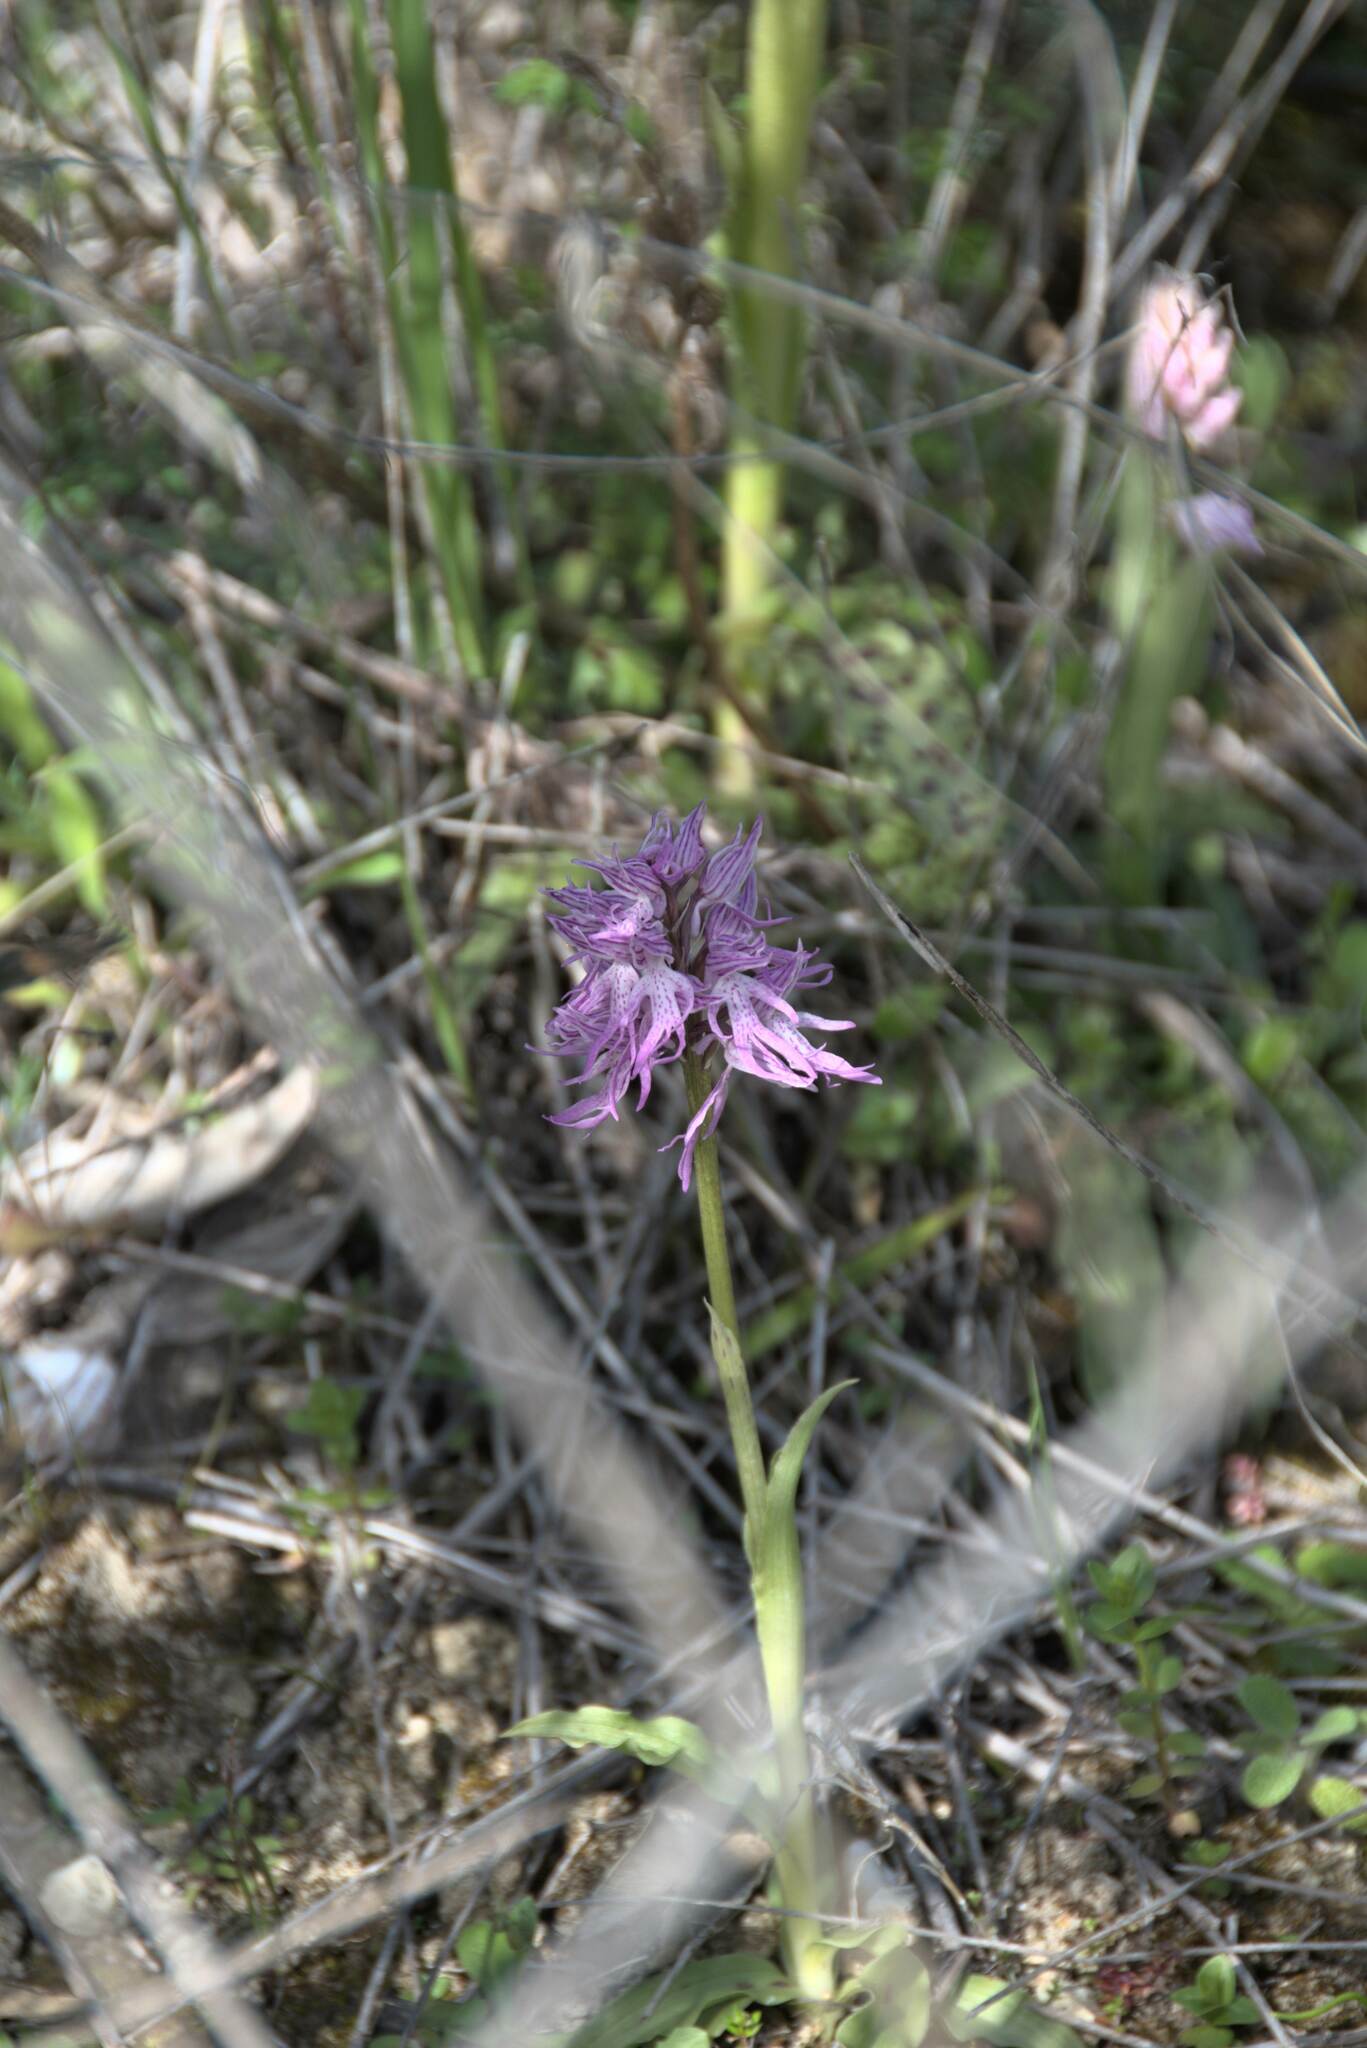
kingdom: Plantae
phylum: Tracheophyta
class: Liliopsida
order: Asparagales
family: Orchidaceae
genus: Orchis
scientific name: Orchis italica
